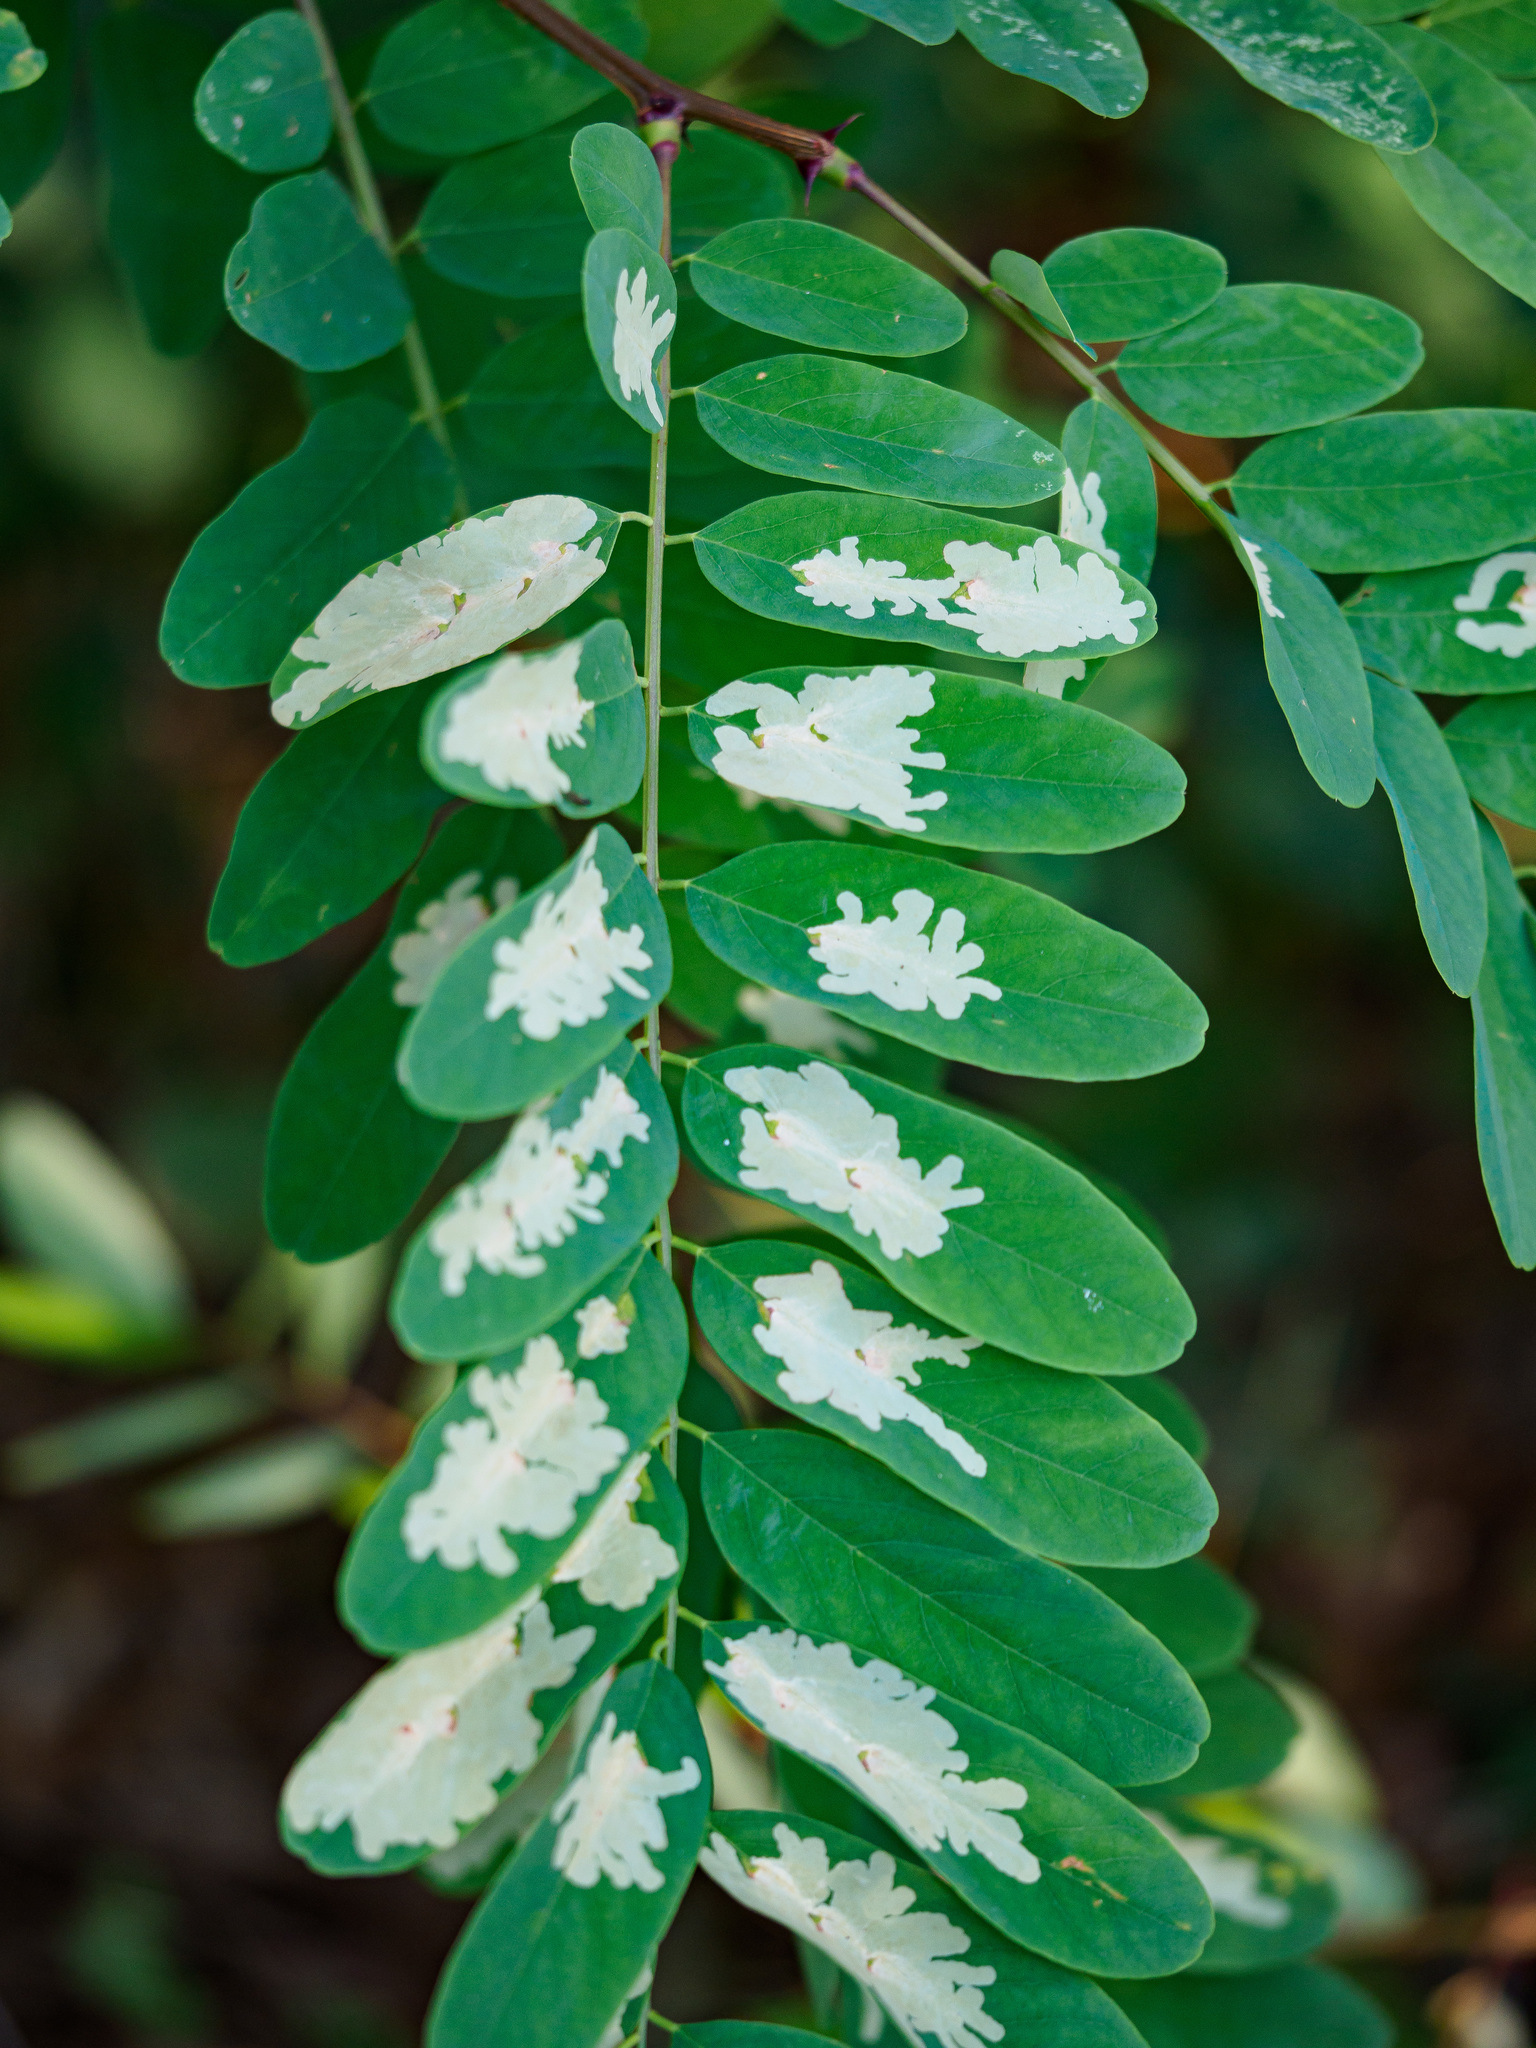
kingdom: Animalia
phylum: Arthropoda
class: Insecta
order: Lepidoptera
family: Gracillariidae
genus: Parectopa
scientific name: Parectopa robiniella
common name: Locust digitate leafminer
